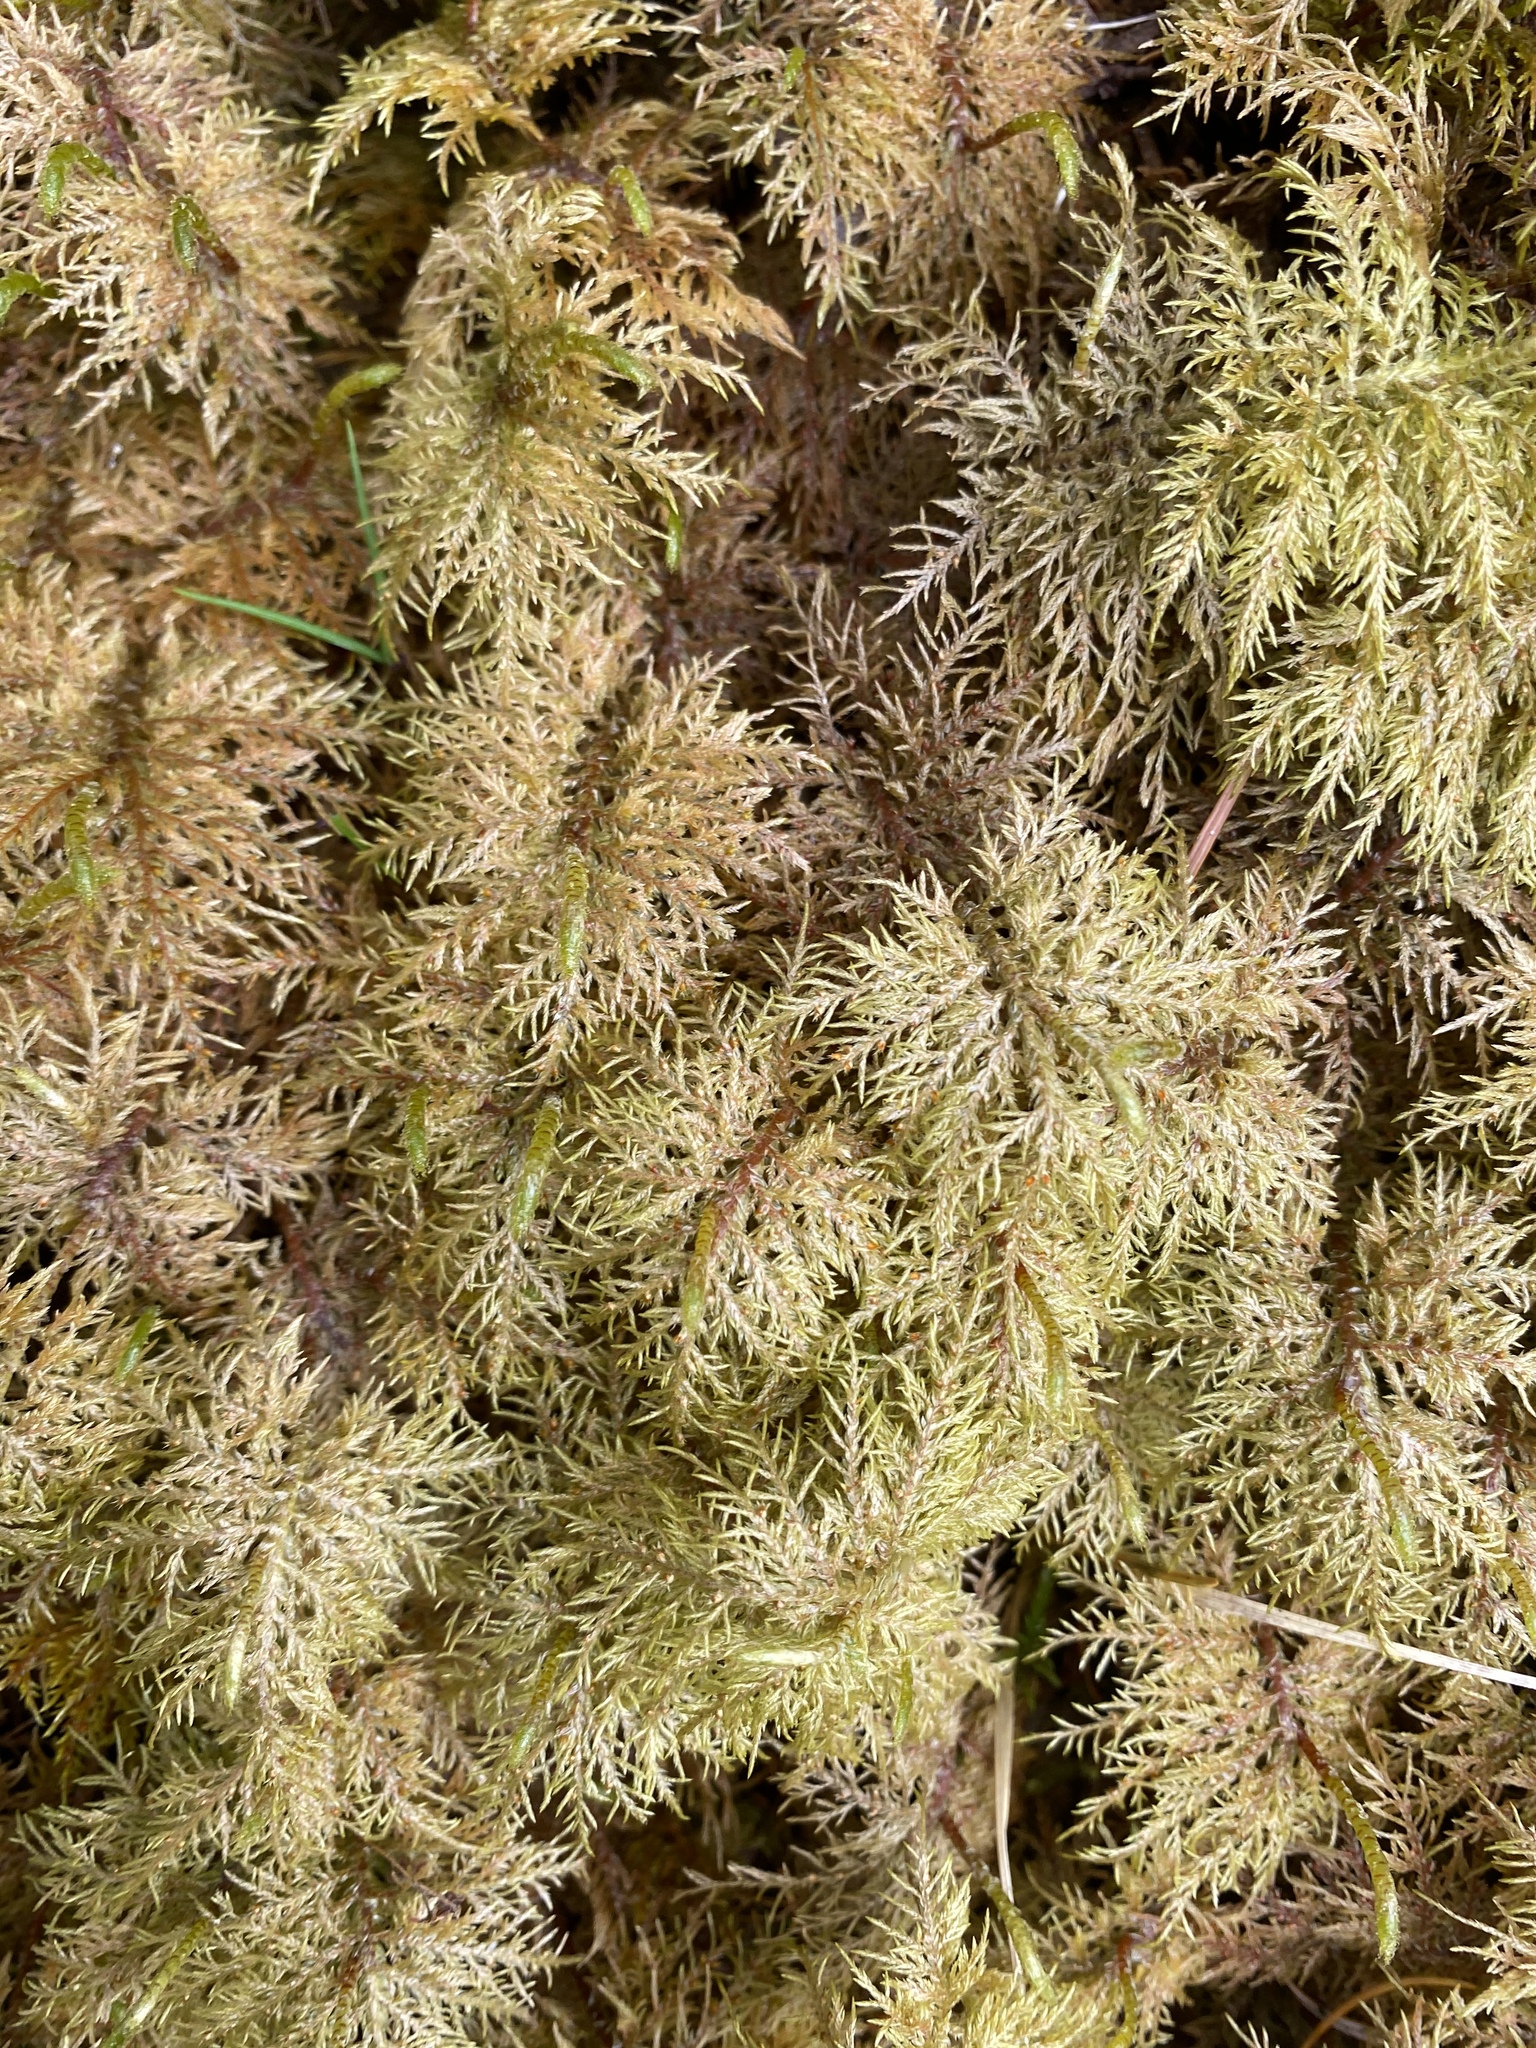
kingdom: Plantae
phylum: Bryophyta
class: Bryopsida
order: Hypnales
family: Hylocomiaceae
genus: Hylocomium
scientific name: Hylocomium splendens
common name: Stairstep moss
